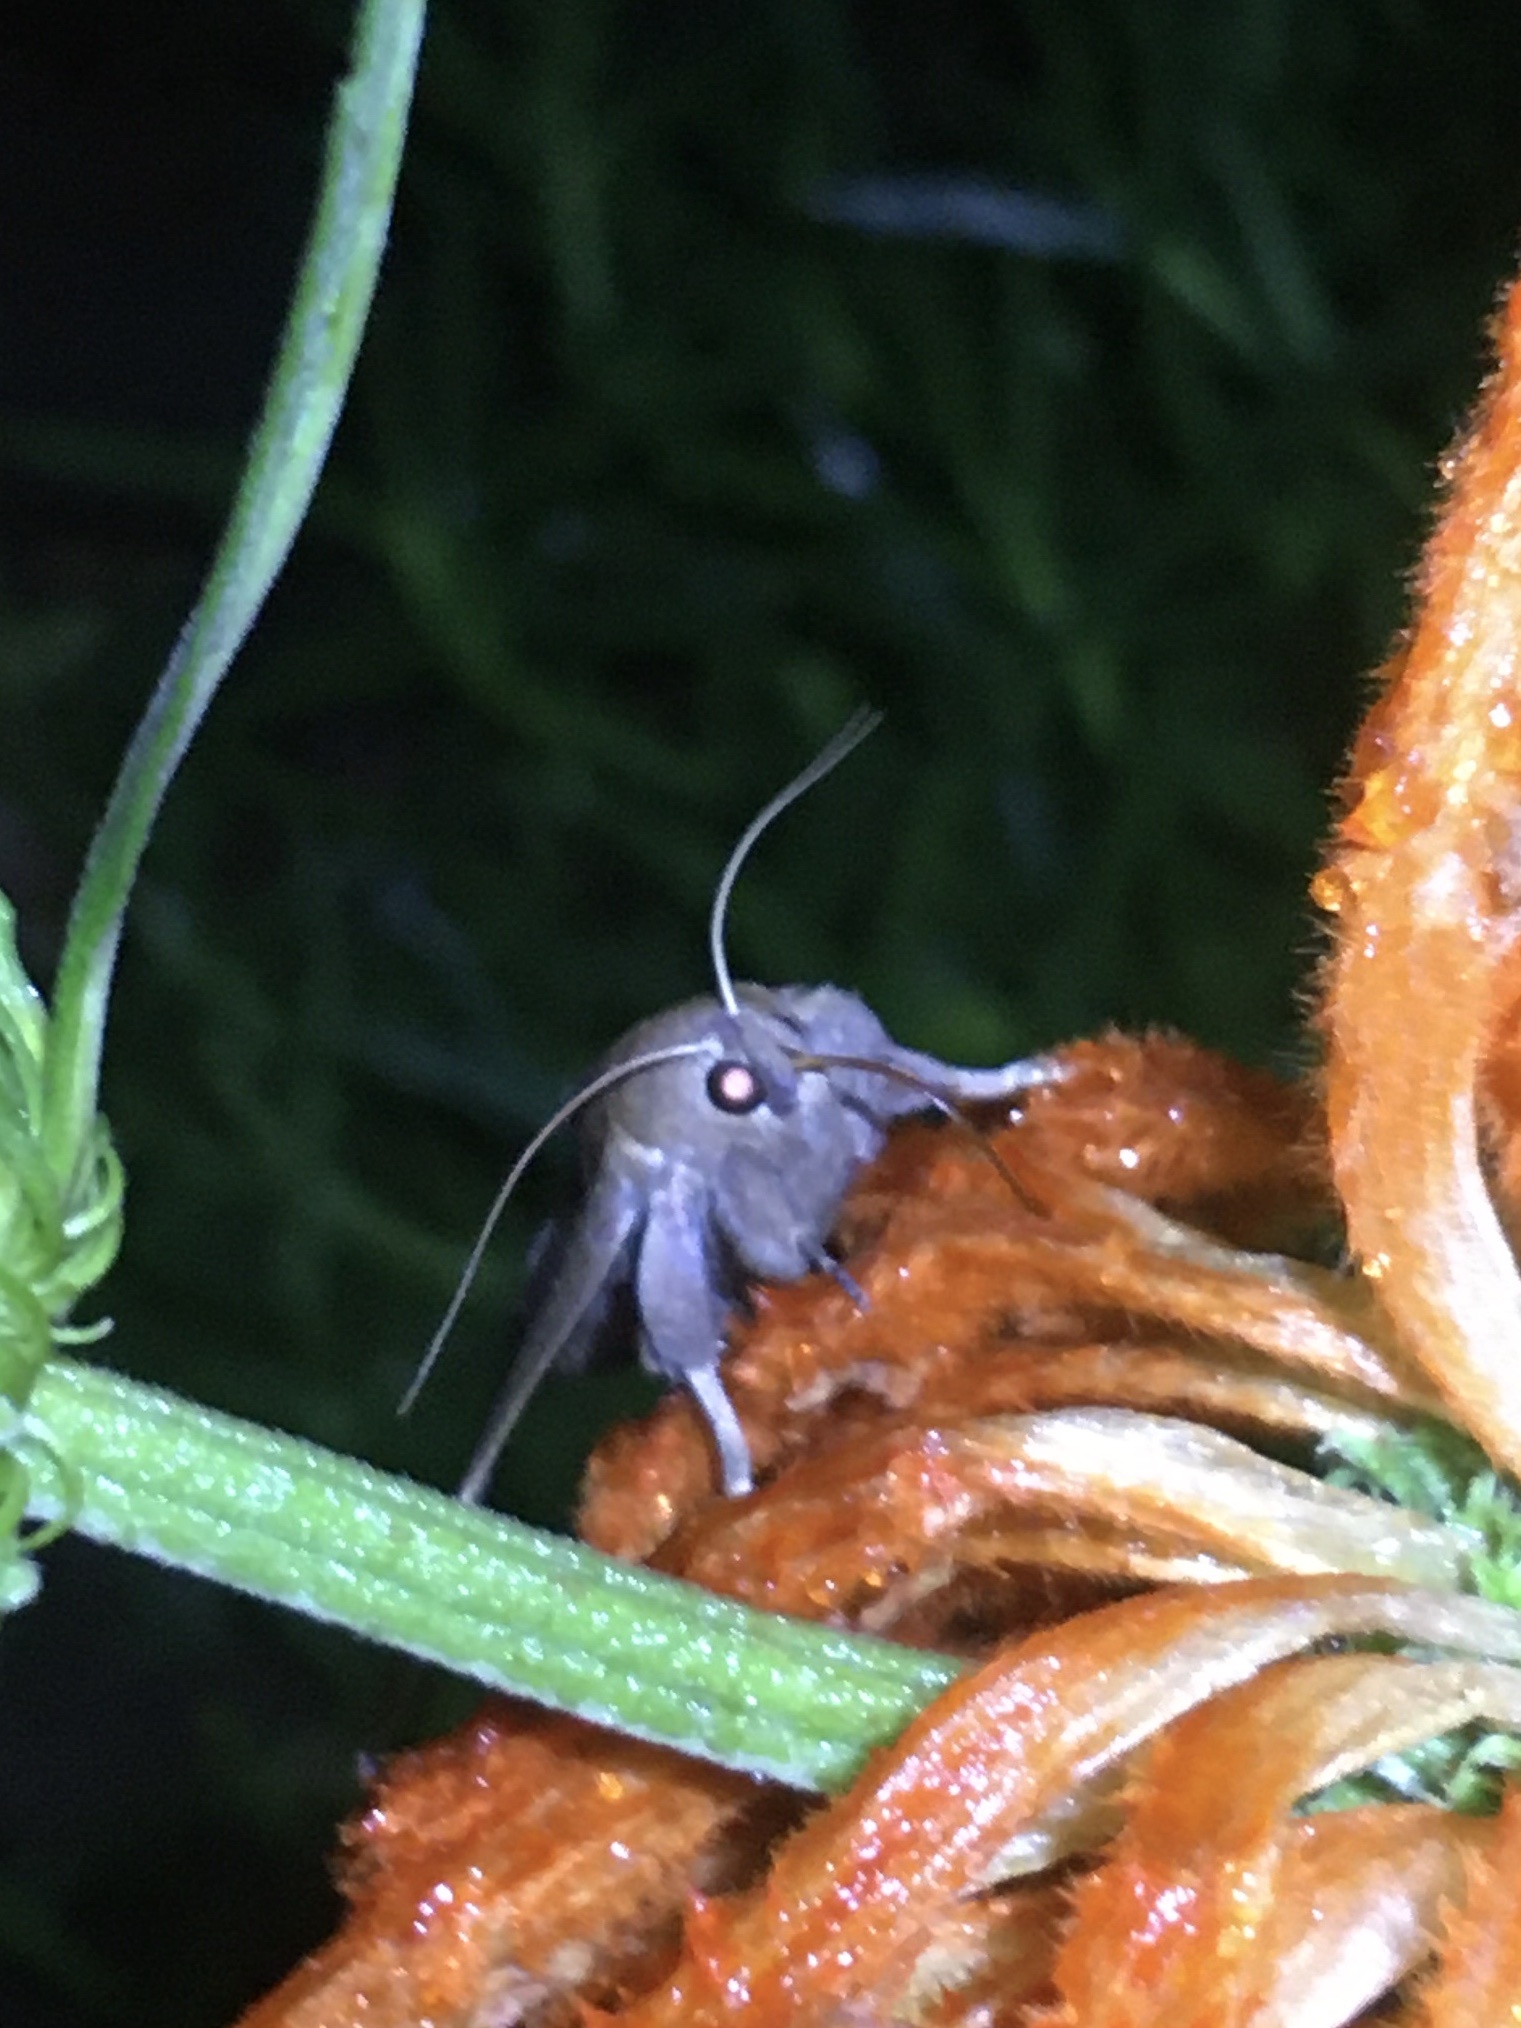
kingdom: Animalia
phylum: Arthropoda
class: Insecta
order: Lepidoptera
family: Erebidae
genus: Achaea
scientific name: Achaea echo
